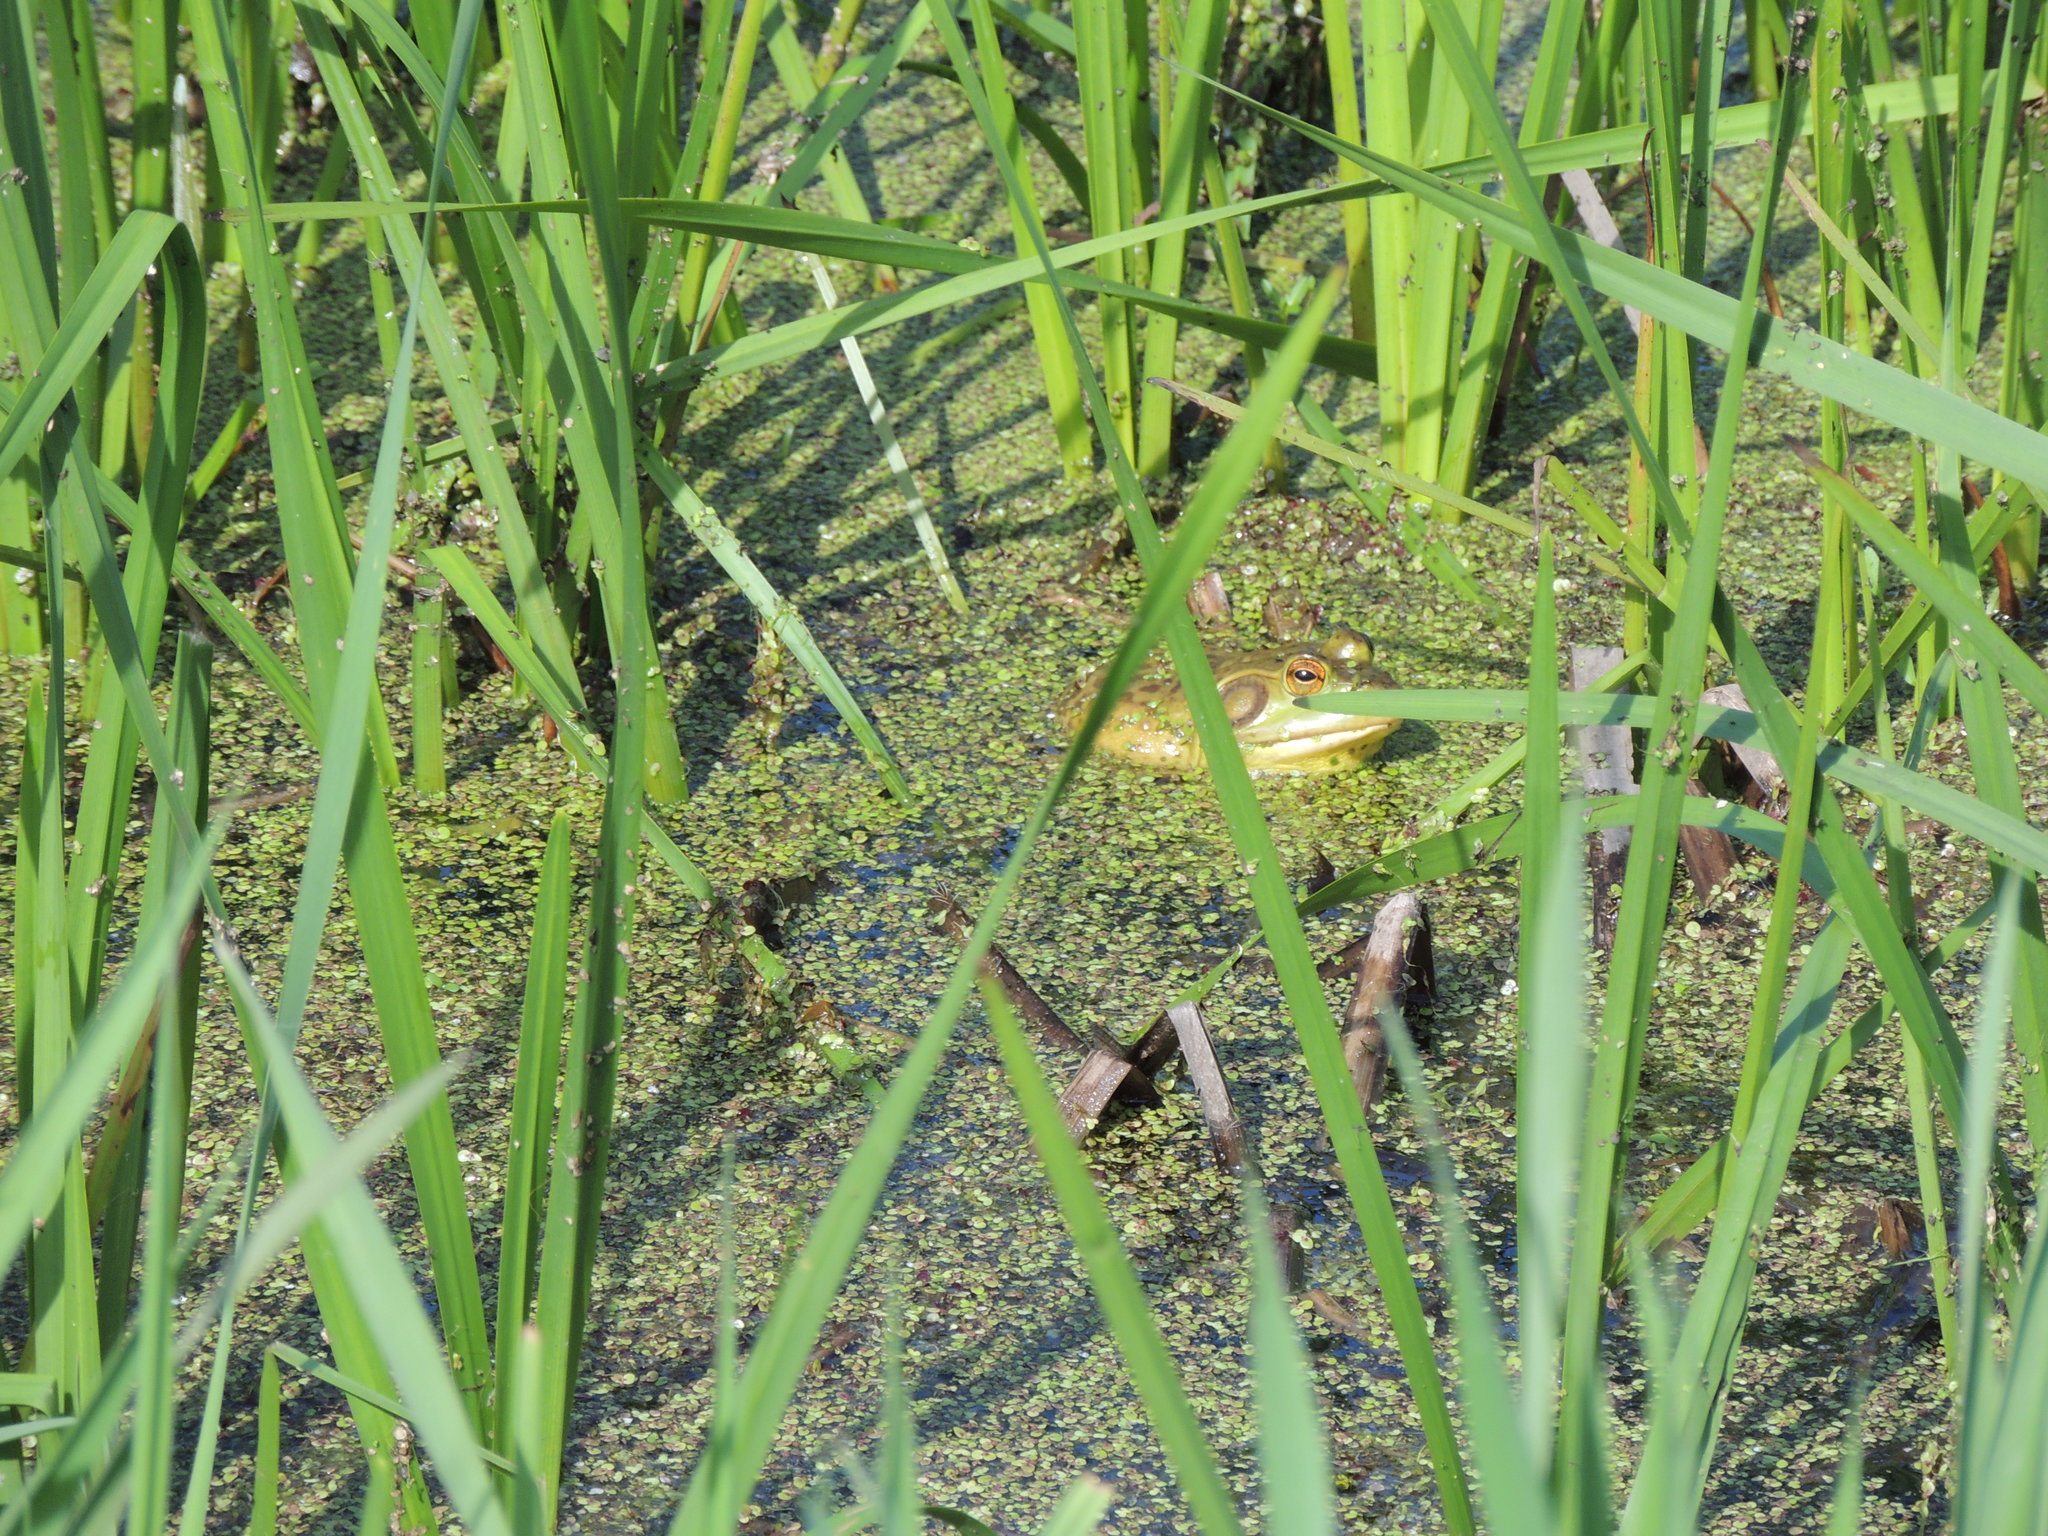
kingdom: Animalia
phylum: Chordata
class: Amphibia
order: Anura
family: Ranidae
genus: Lithobates
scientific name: Lithobates catesbeianus
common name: American bullfrog
